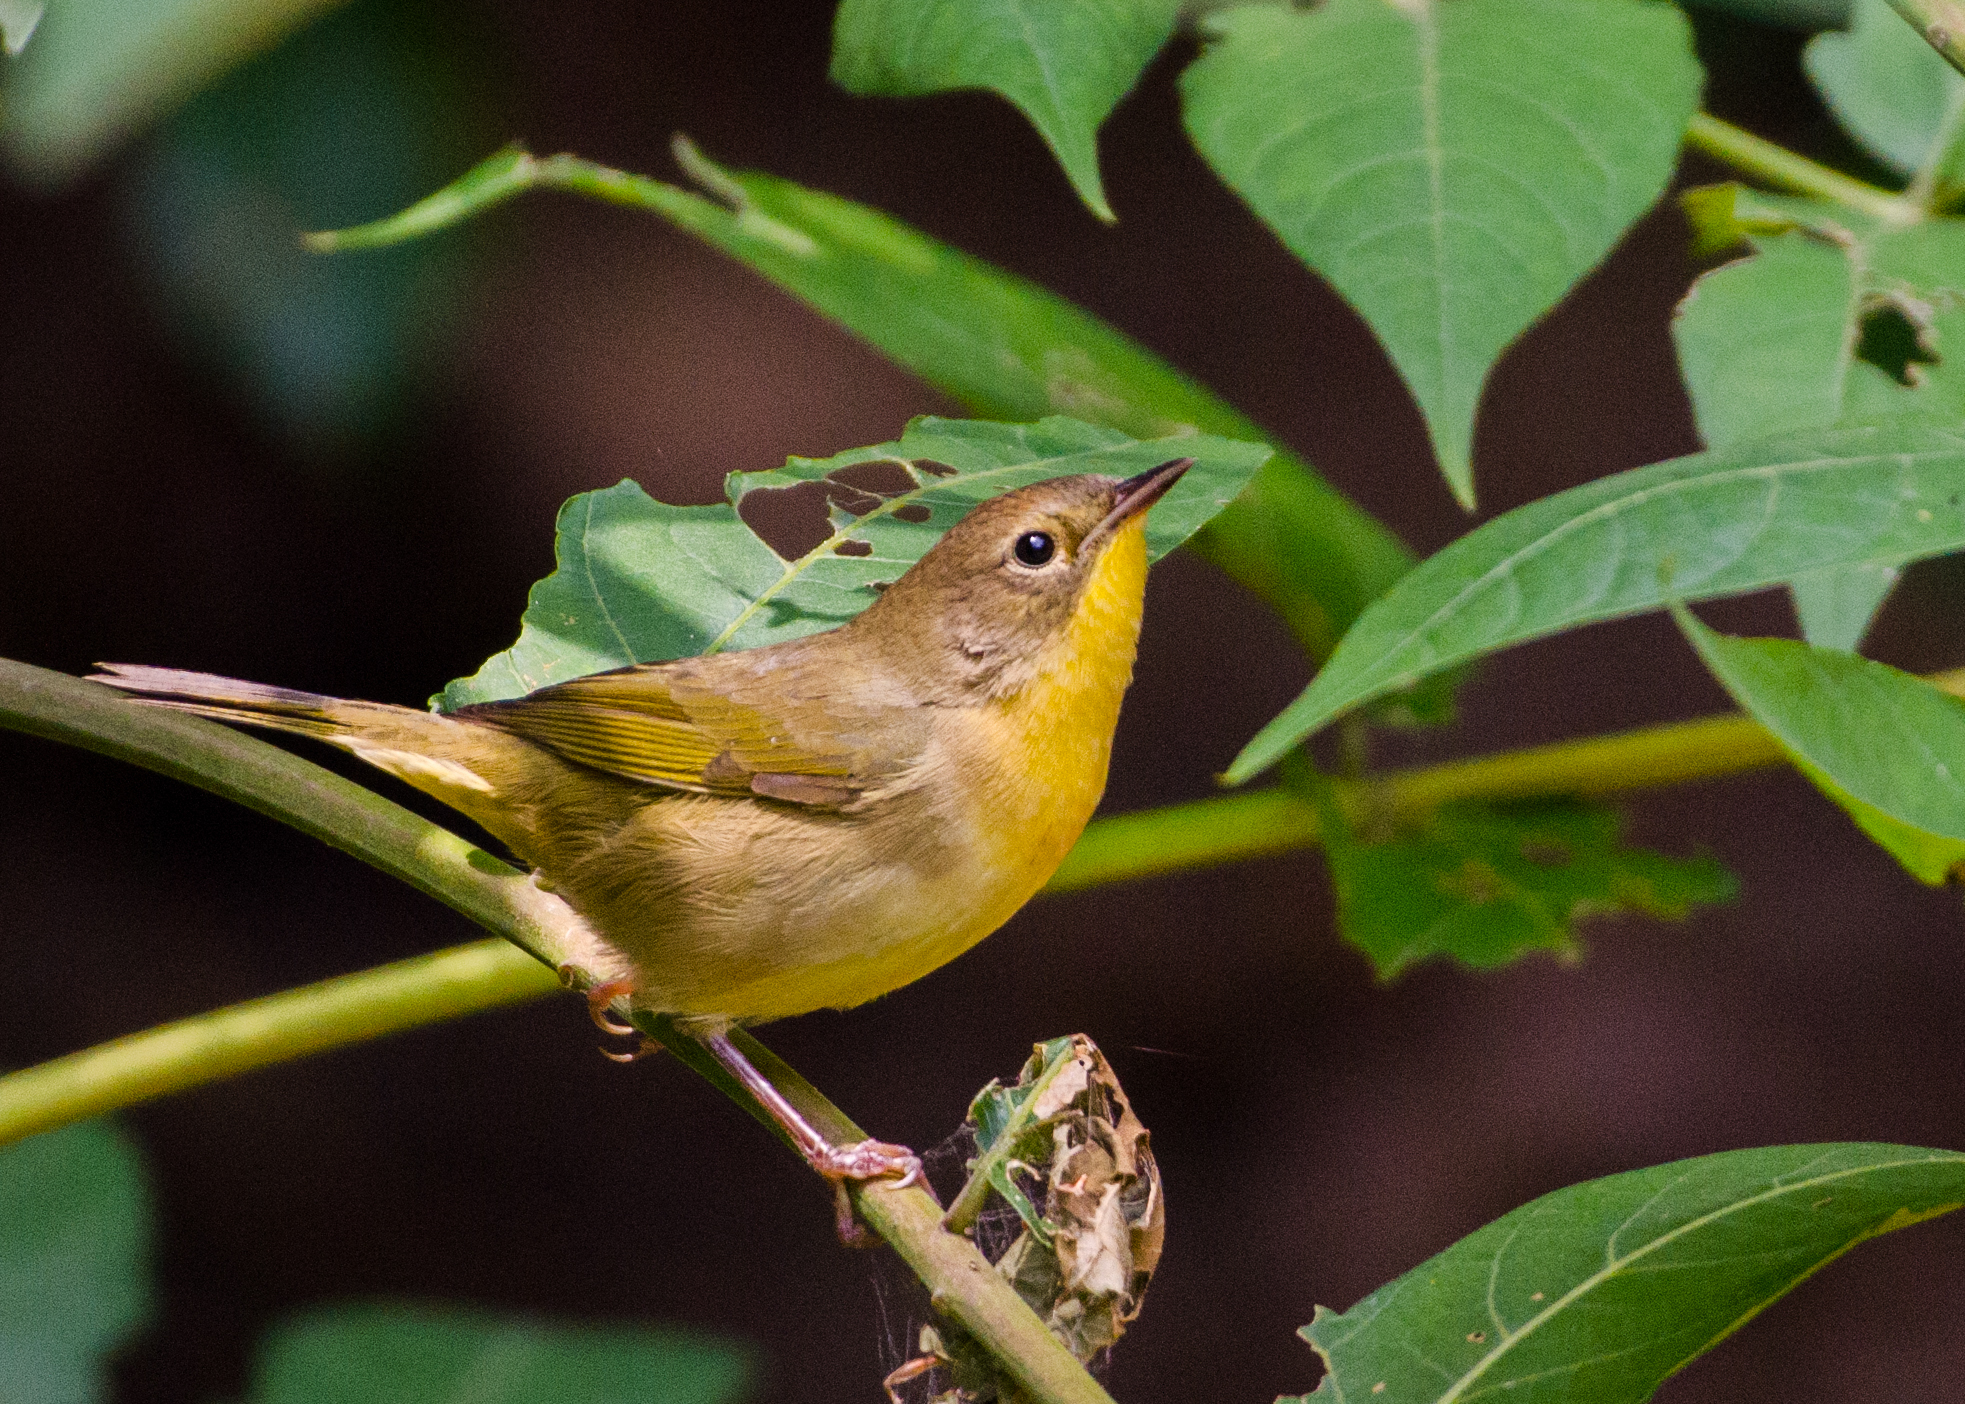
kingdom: Animalia
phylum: Chordata
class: Aves
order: Passeriformes
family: Parulidae
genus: Geothlypis
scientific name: Geothlypis trichas
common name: Common yellowthroat
